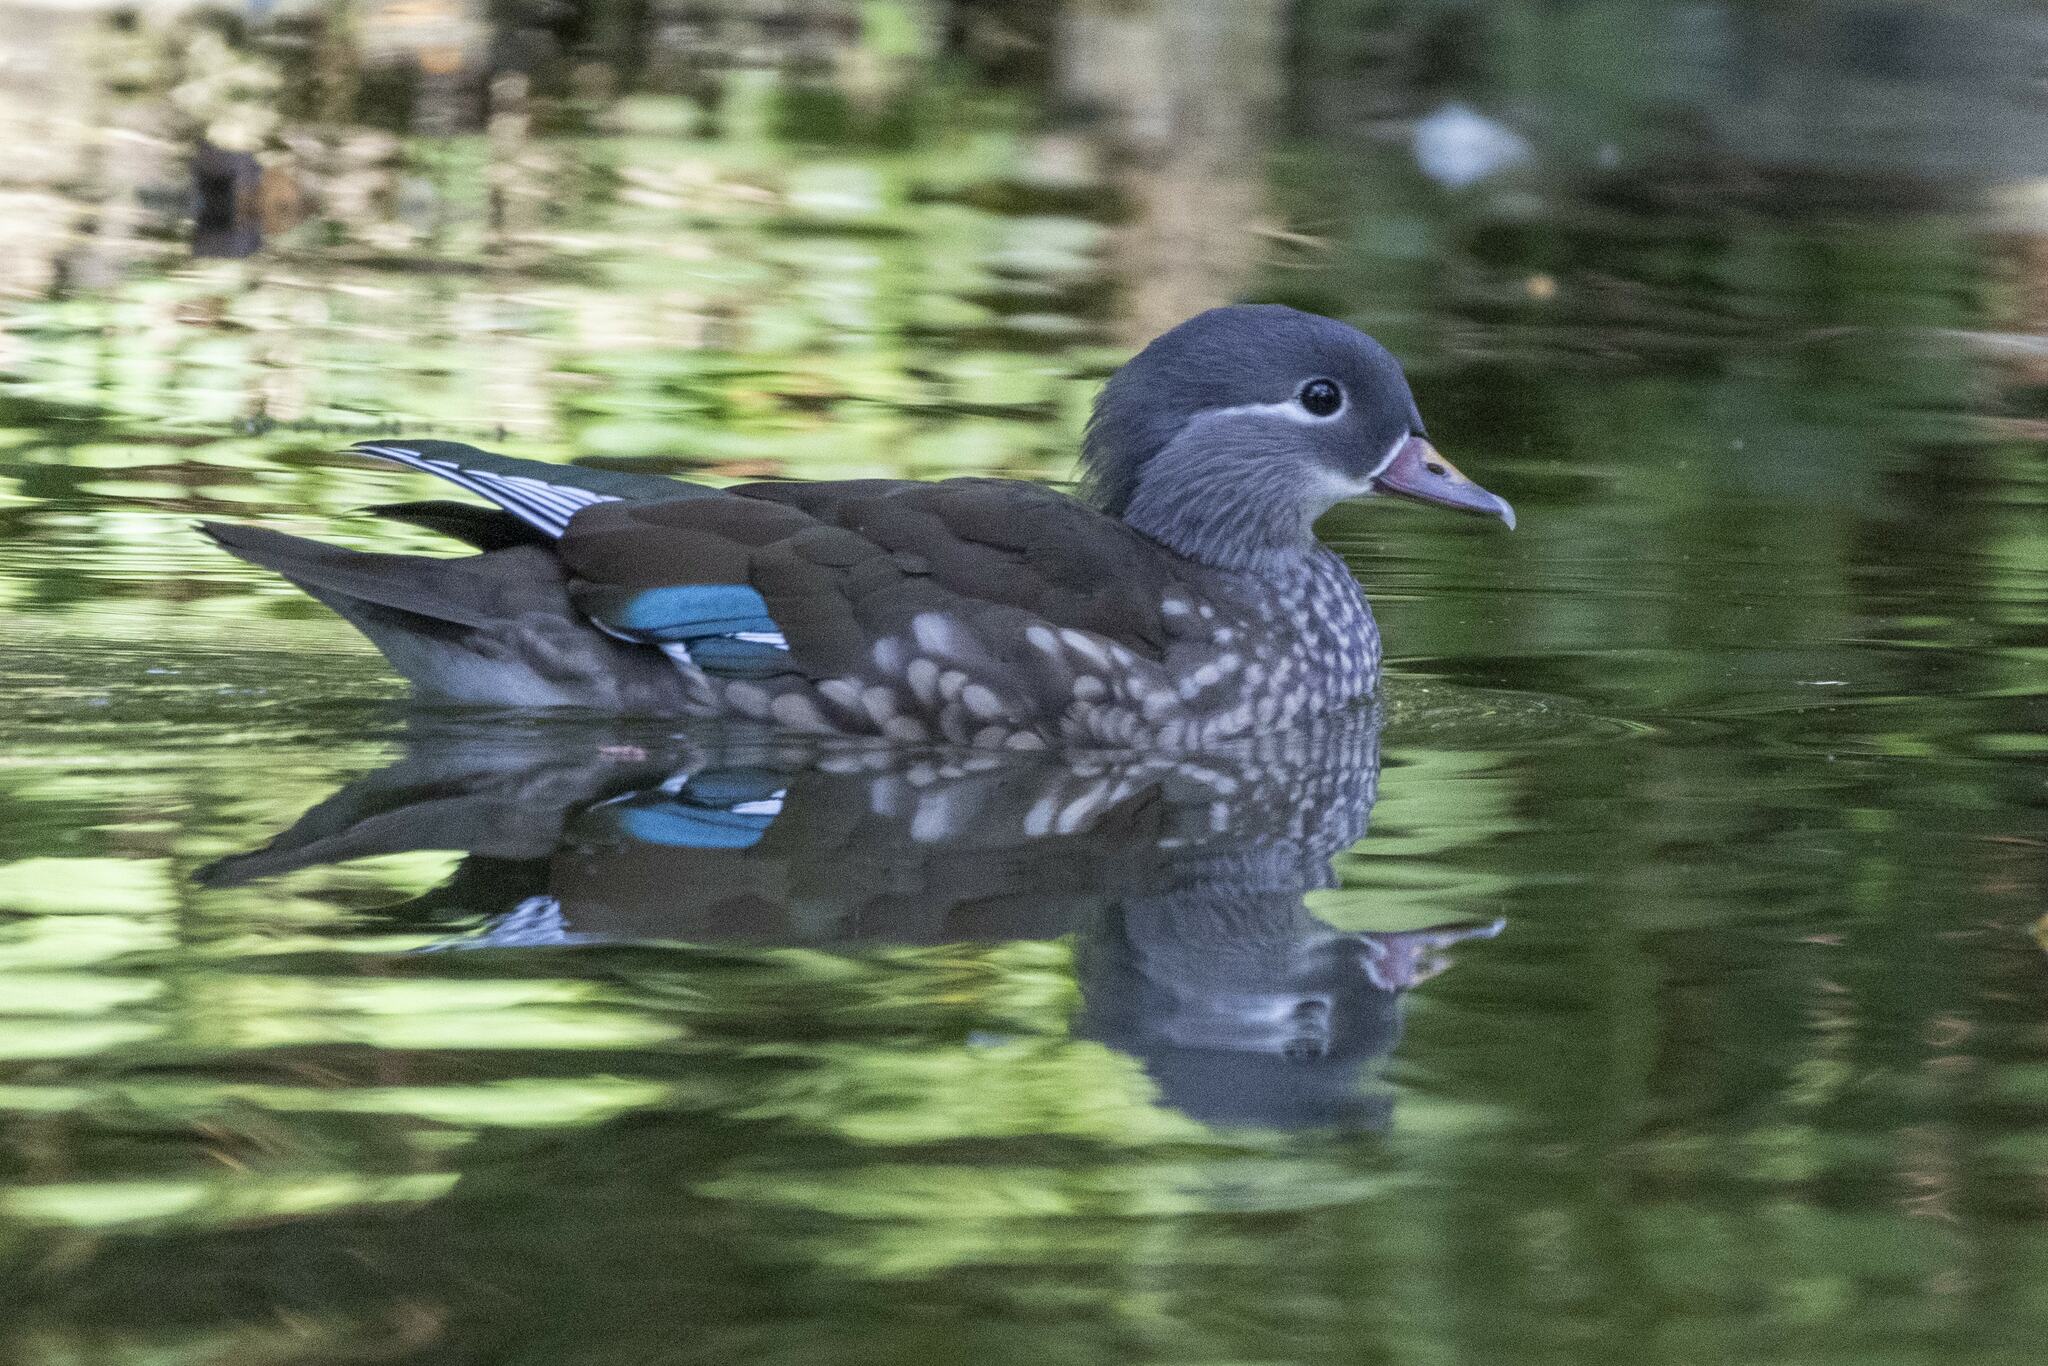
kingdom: Animalia
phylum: Chordata
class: Aves
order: Anseriformes
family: Anatidae
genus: Aix
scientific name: Aix galericulata
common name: Mandarin duck
